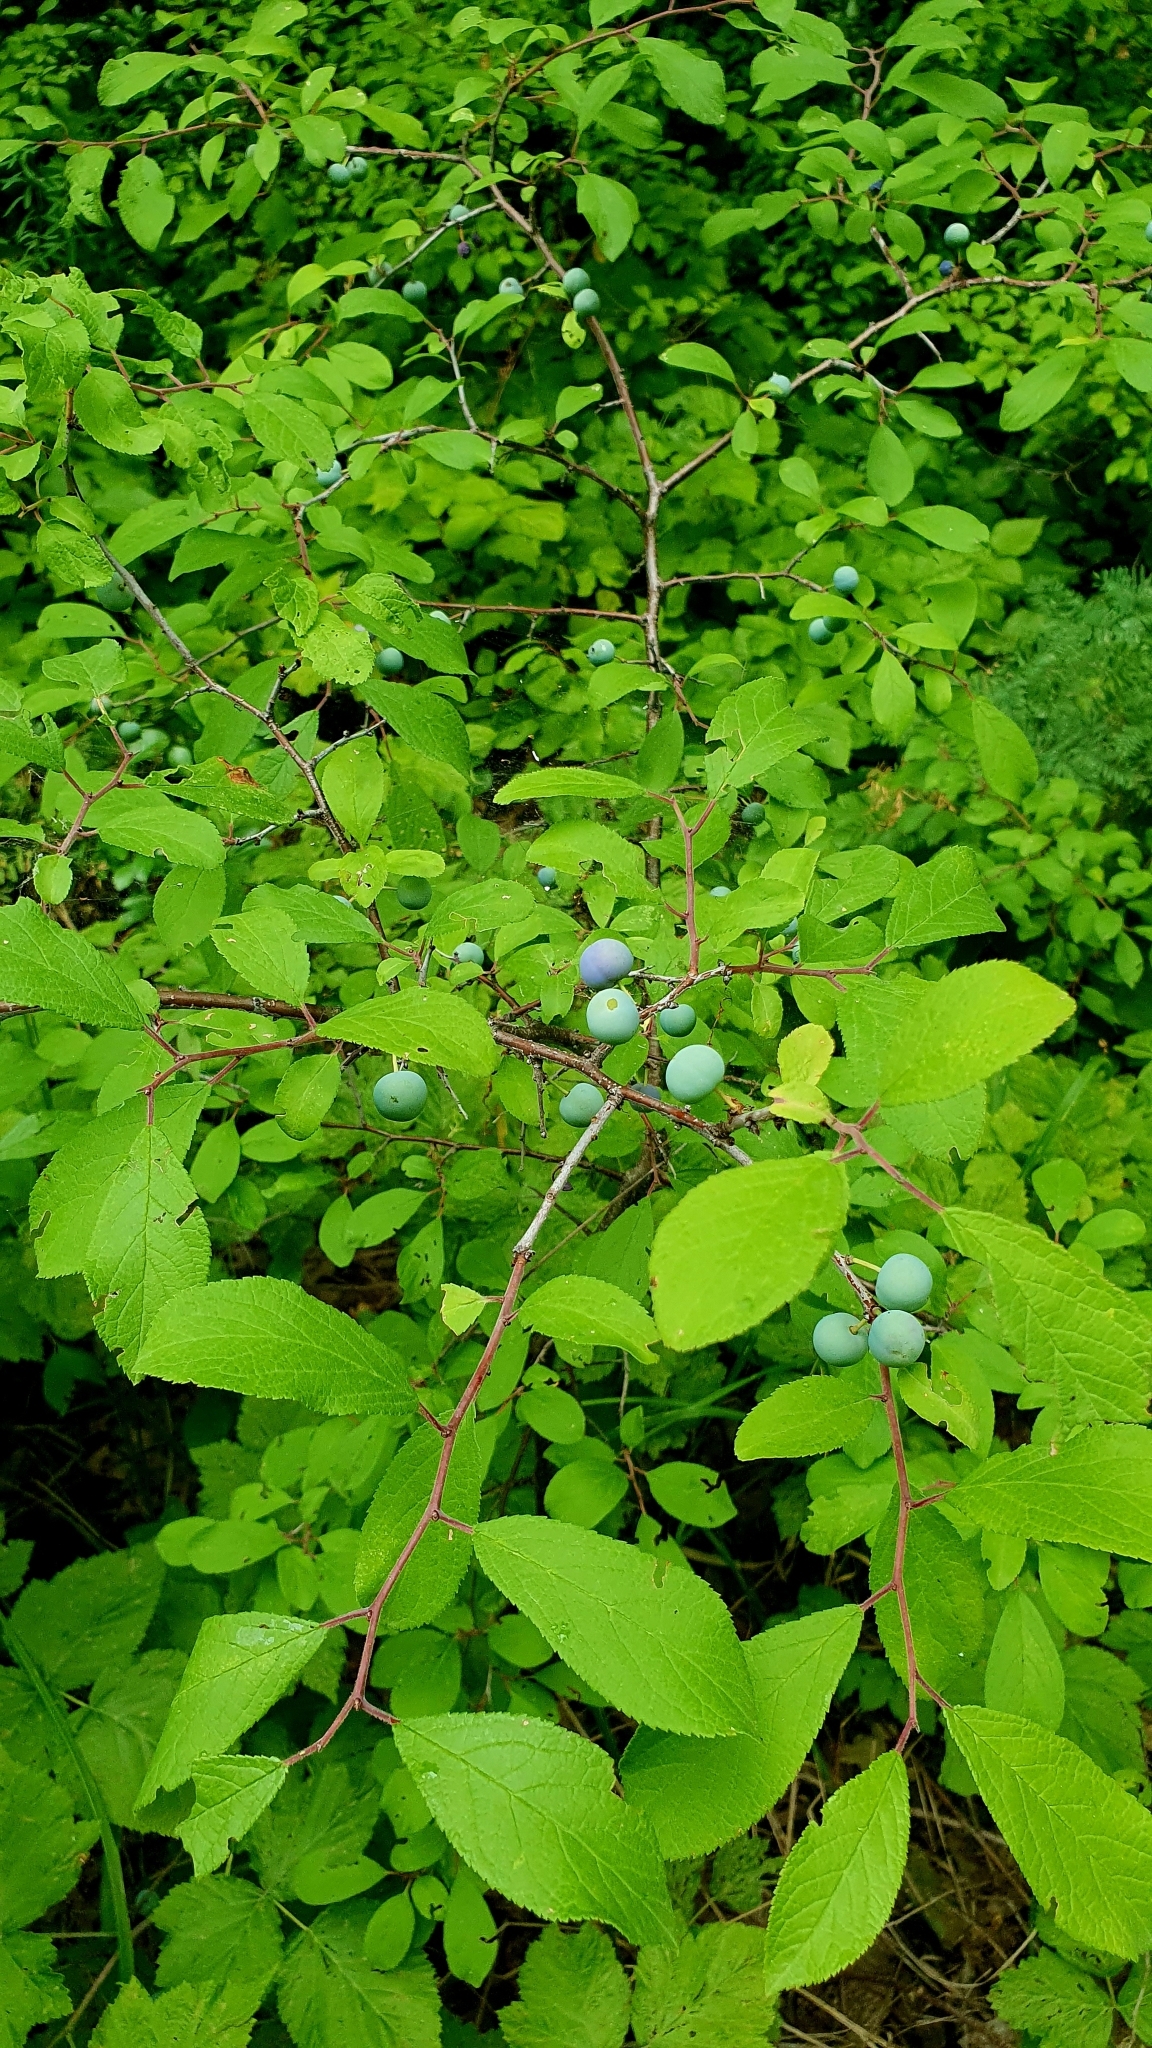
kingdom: Plantae
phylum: Tracheophyta
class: Magnoliopsida
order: Rosales
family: Rosaceae
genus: Prunus
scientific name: Prunus spinosa
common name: Blackthorn
